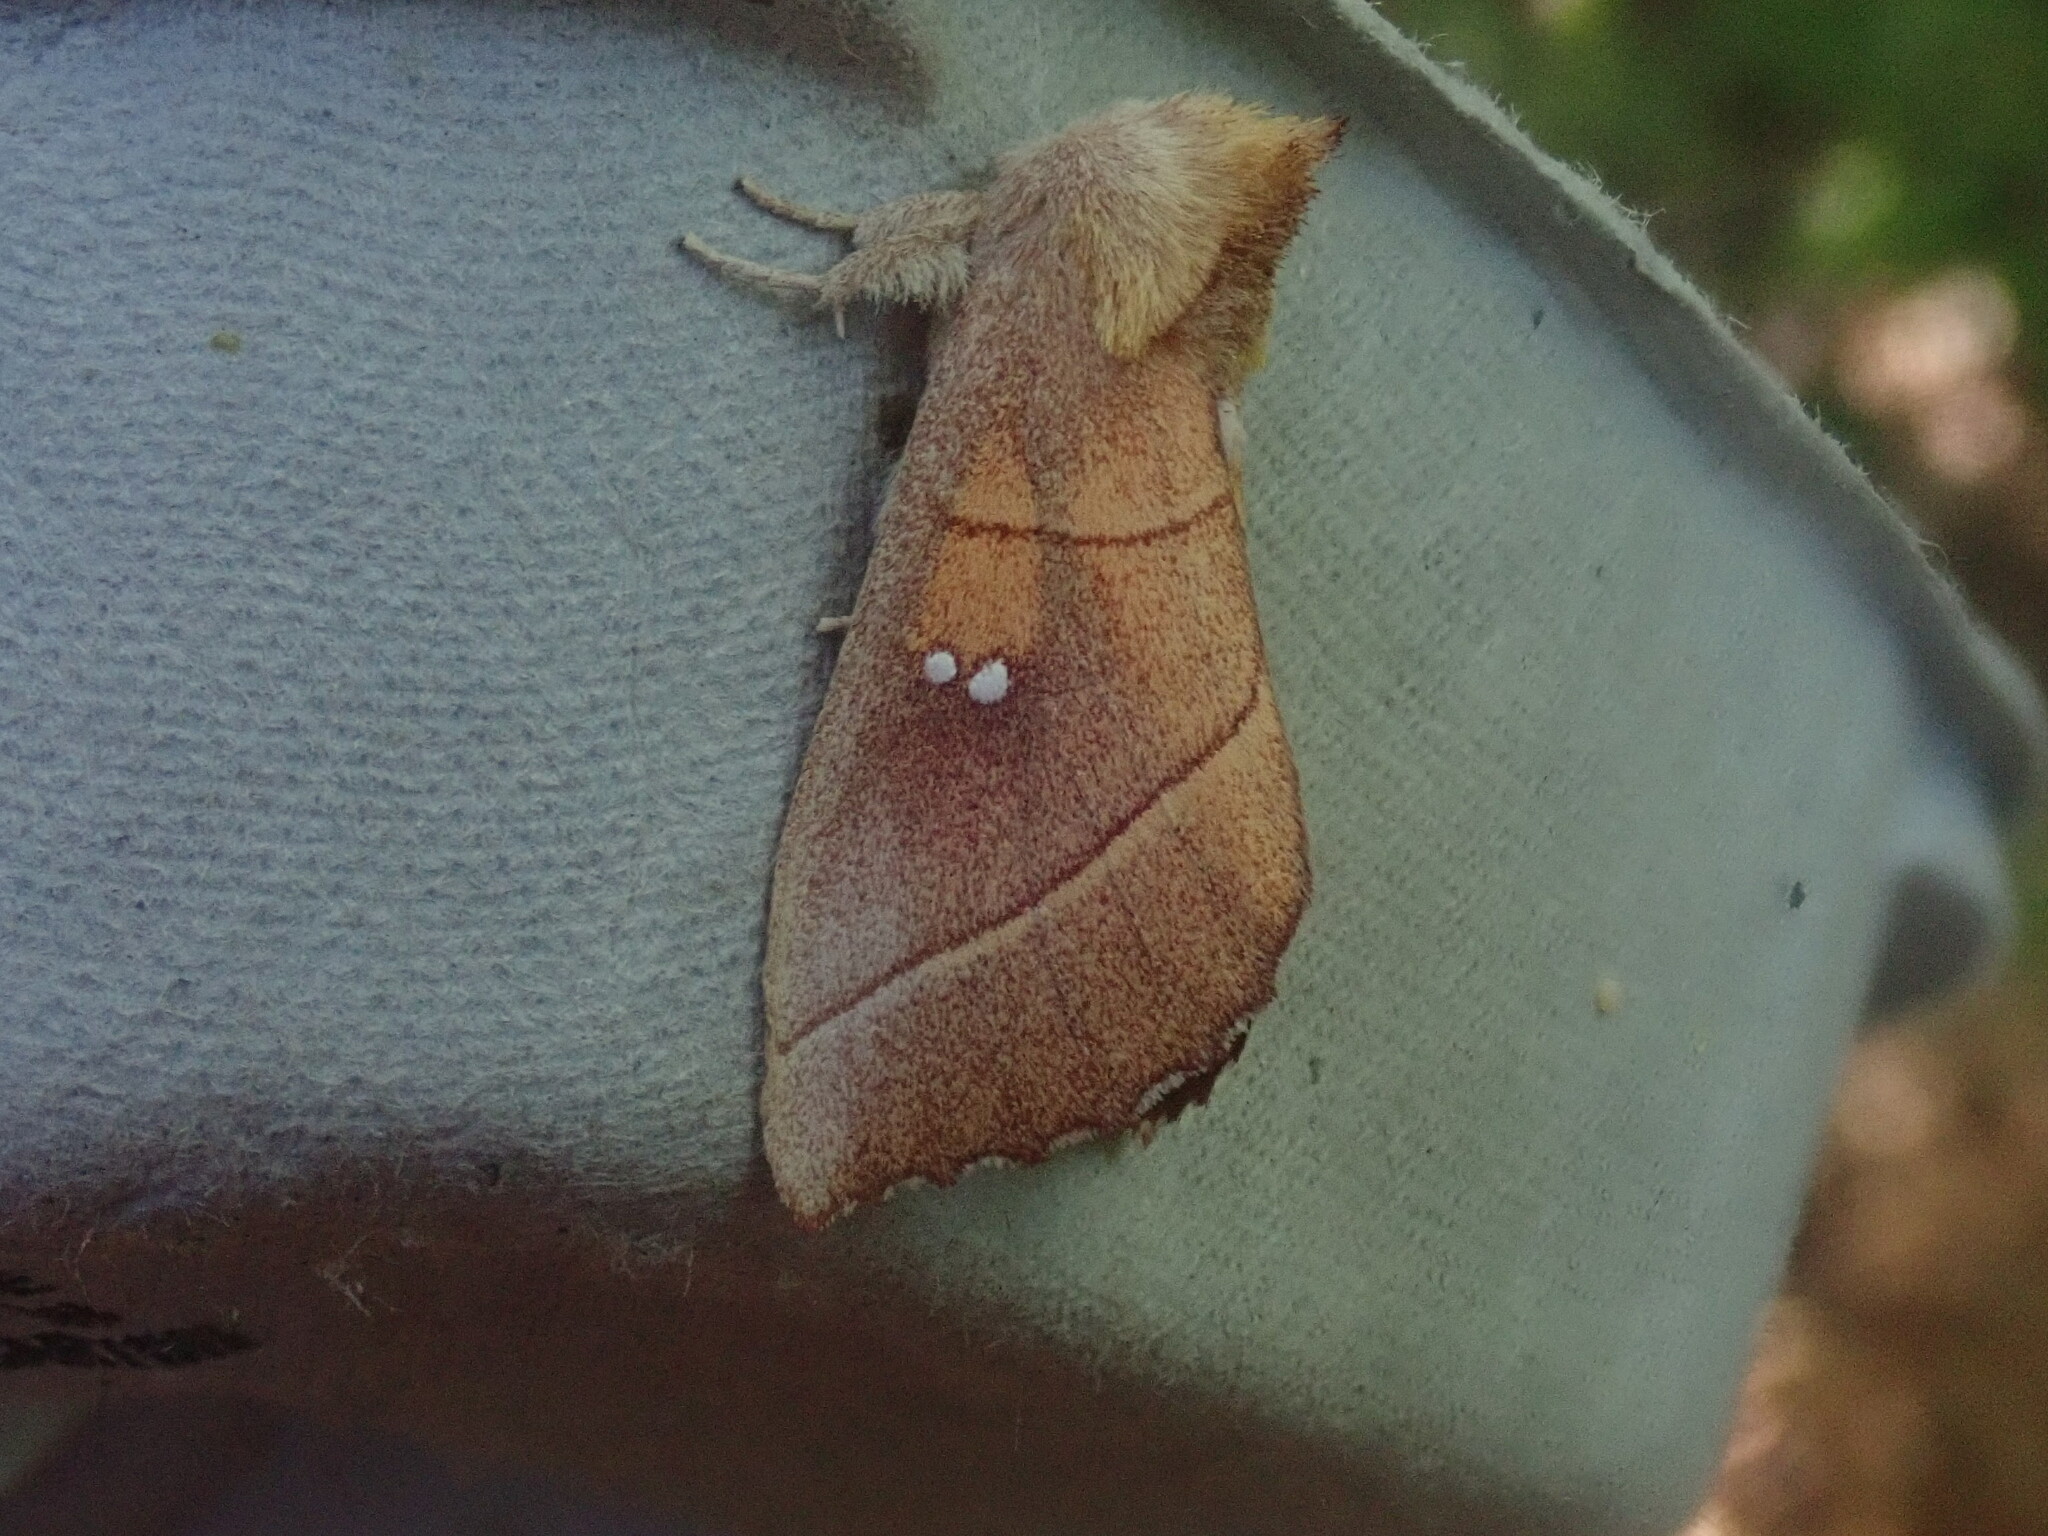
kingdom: Animalia
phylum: Arthropoda
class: Insecta
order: Lepidoptera
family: Notodontidae
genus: Nadata
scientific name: Nadata gibbosa
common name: White-dotted prominent
